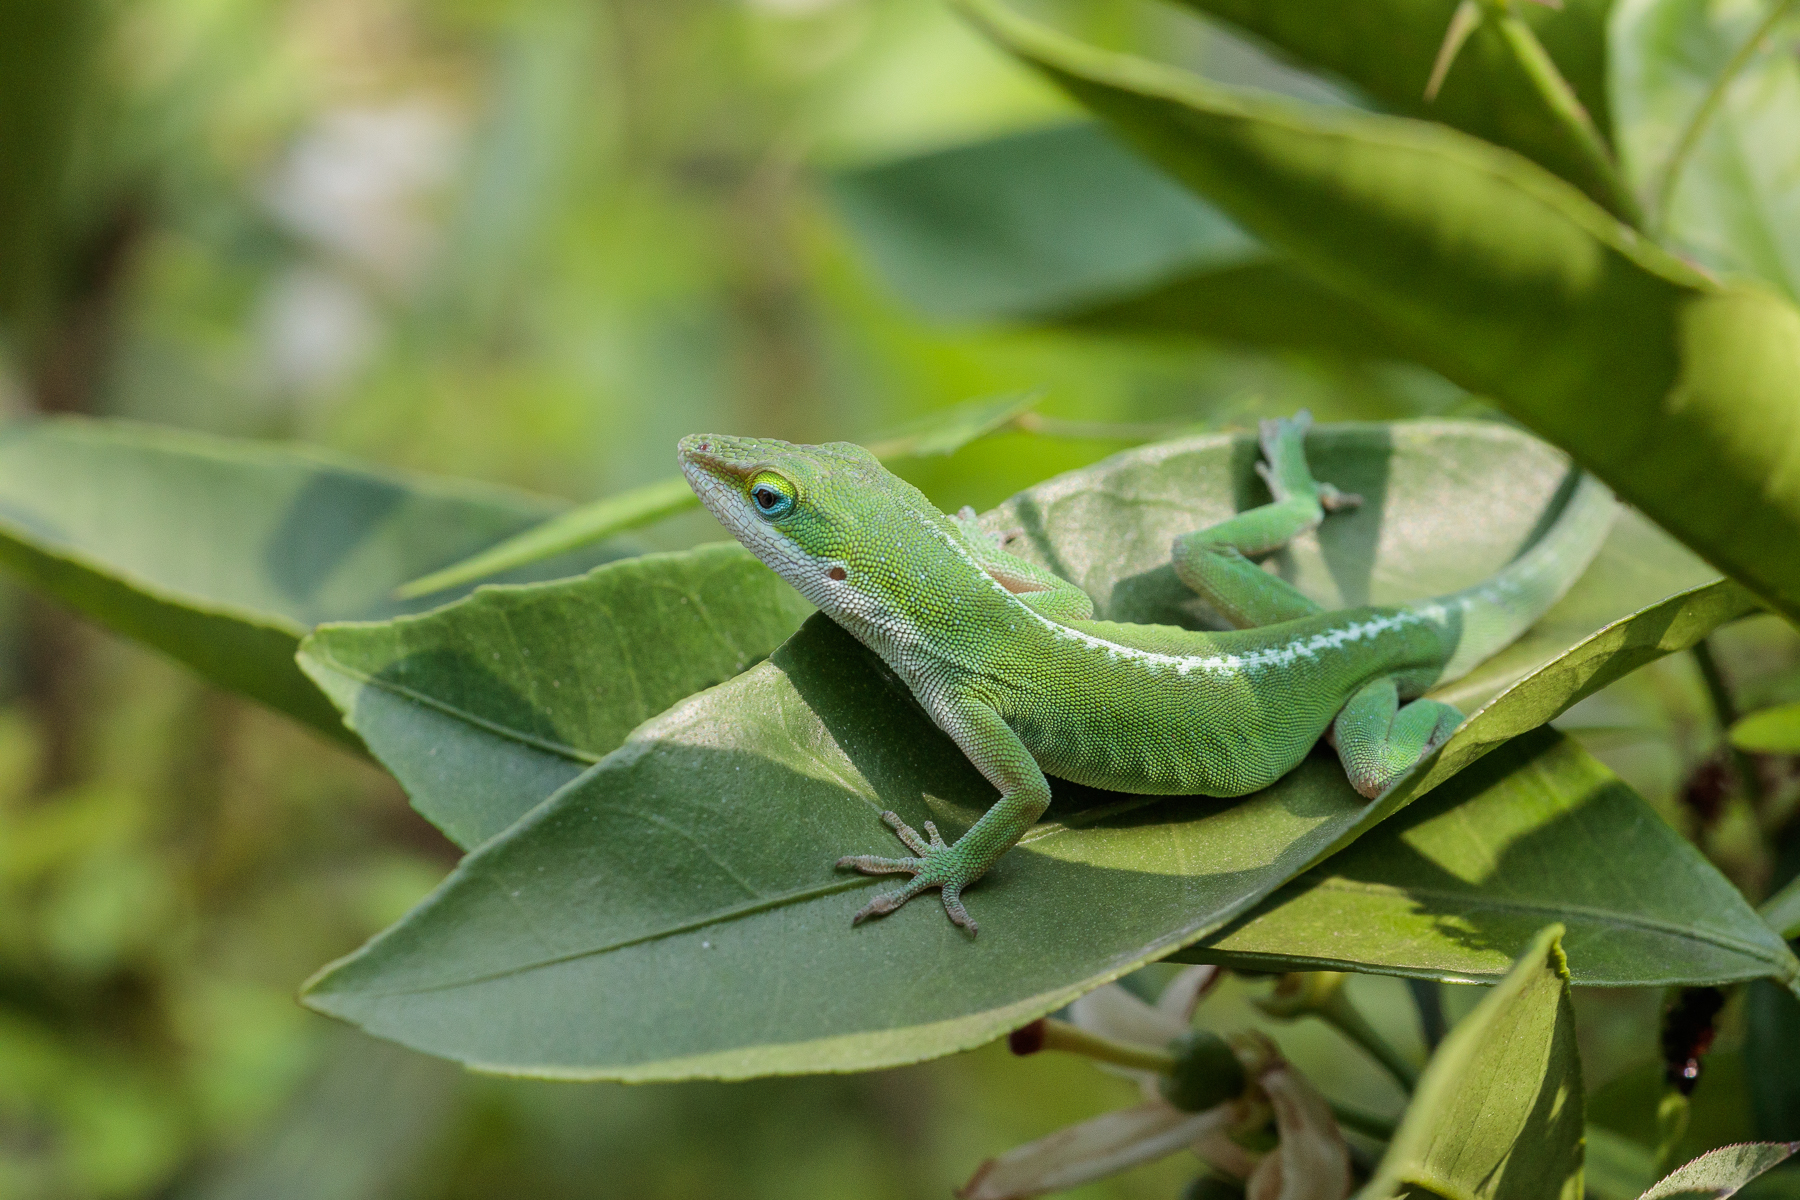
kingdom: Animalia
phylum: Chordata
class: Squamata
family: Dactyloidae
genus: Anolis
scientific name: Anolis carolinensis
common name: Green anole
